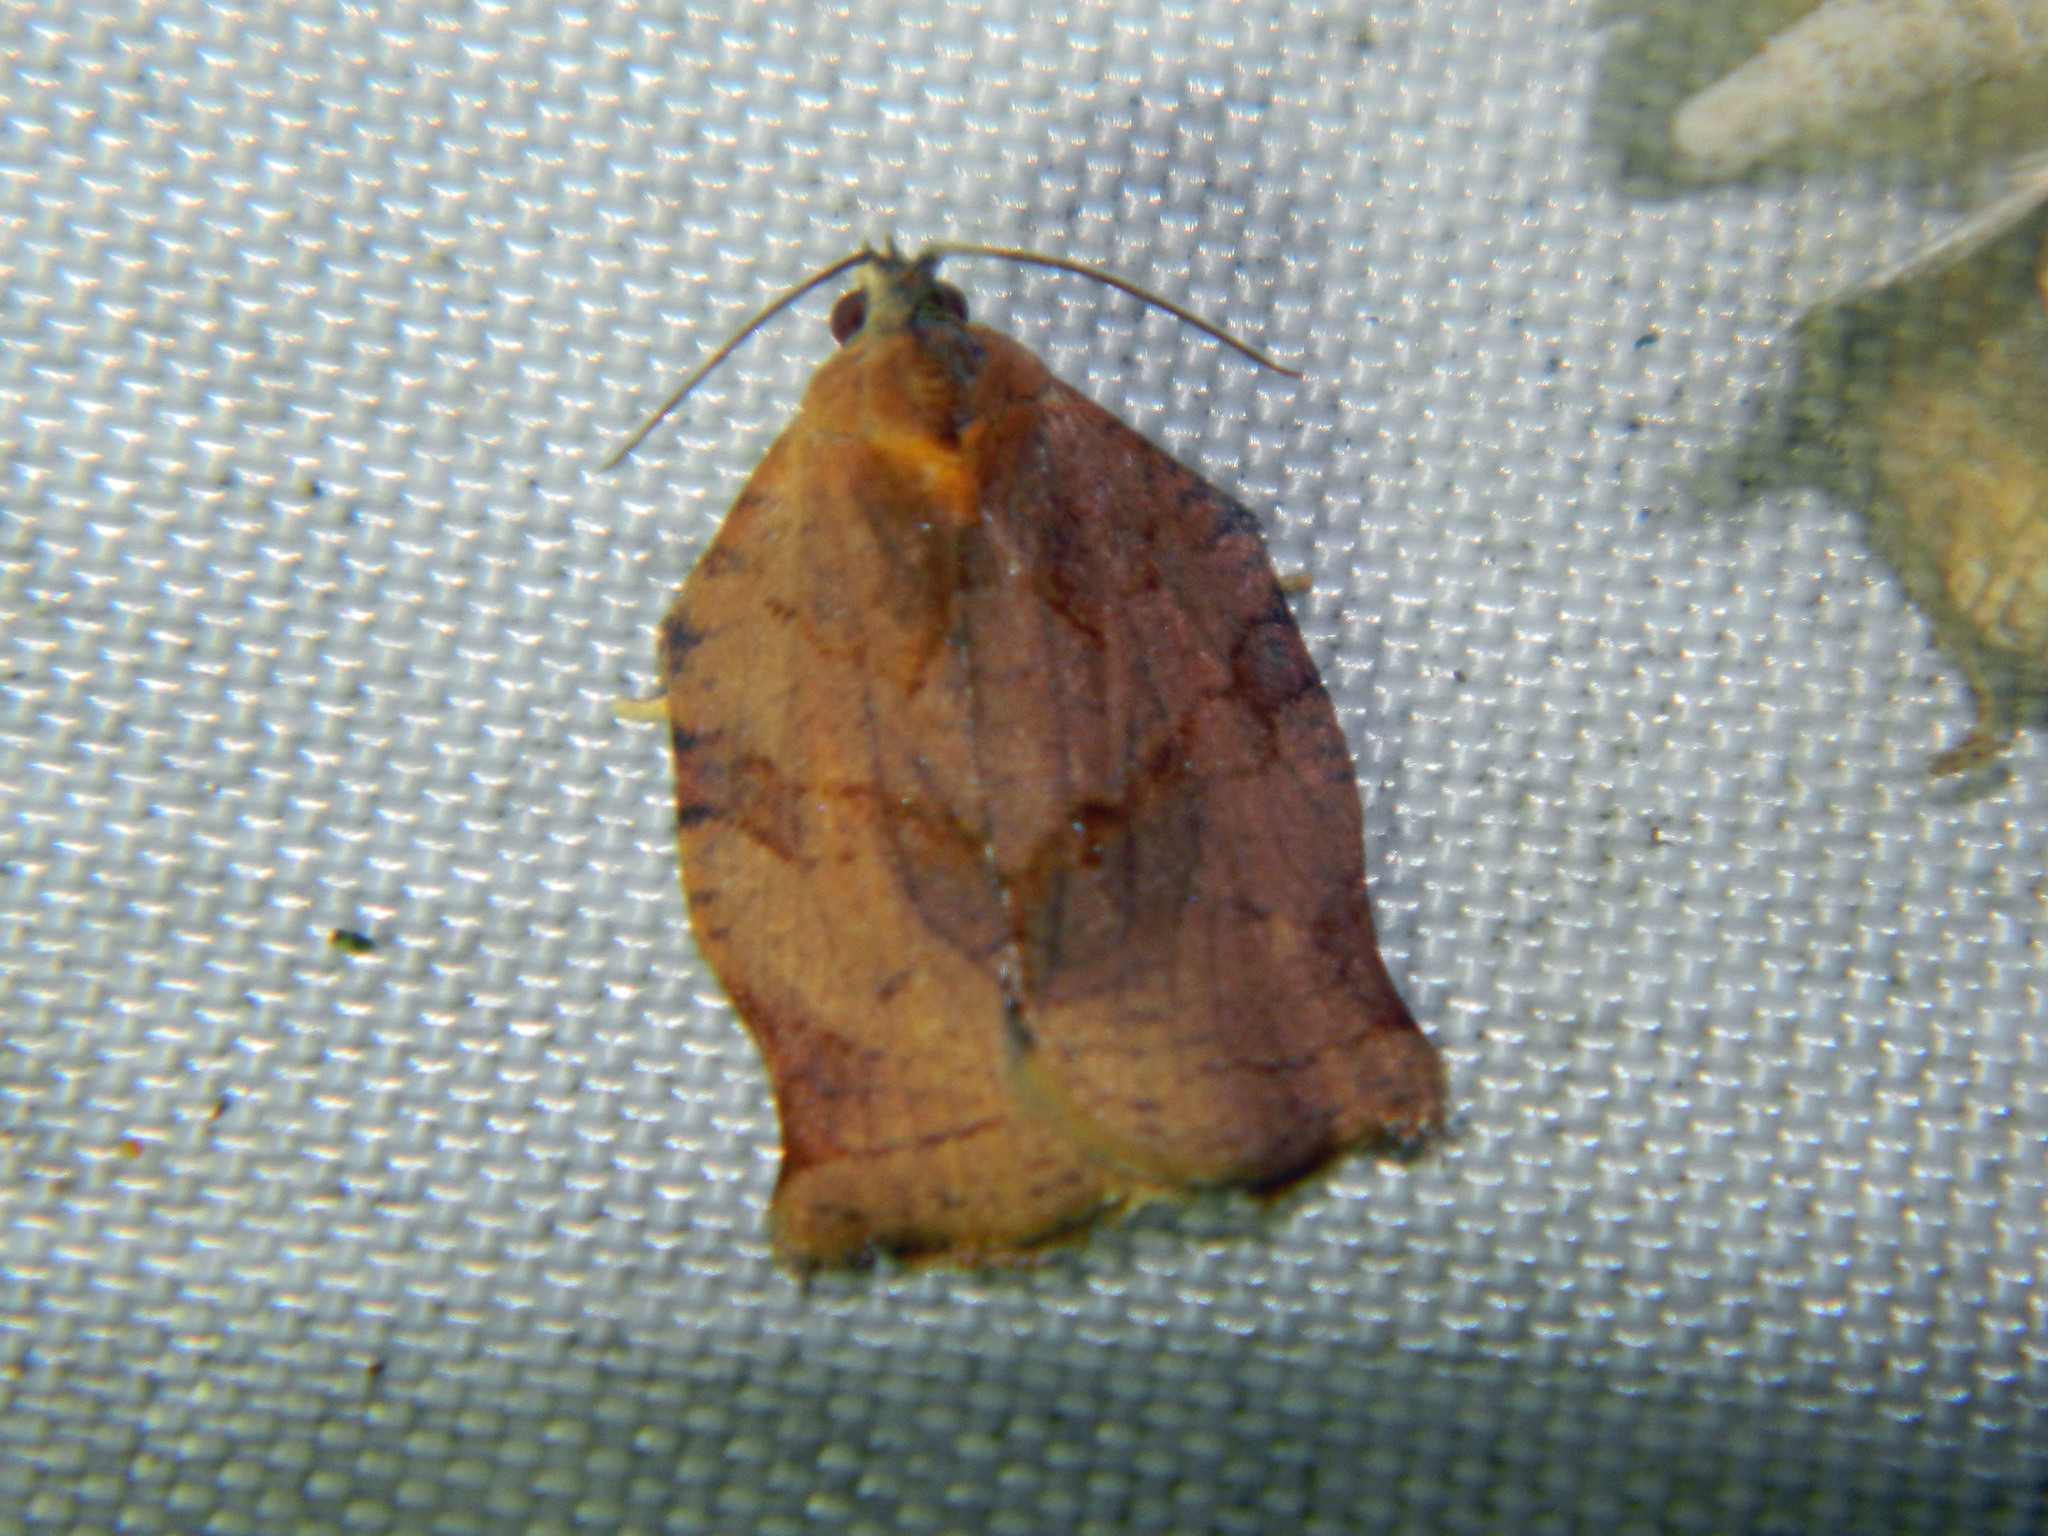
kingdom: Animalia
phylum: Arthropoda
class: Insecta
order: Lepidoptera
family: Tortricidae
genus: Choristoneura
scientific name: Choristoneura rosaceana
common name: Oblique-banded leafroller moth
